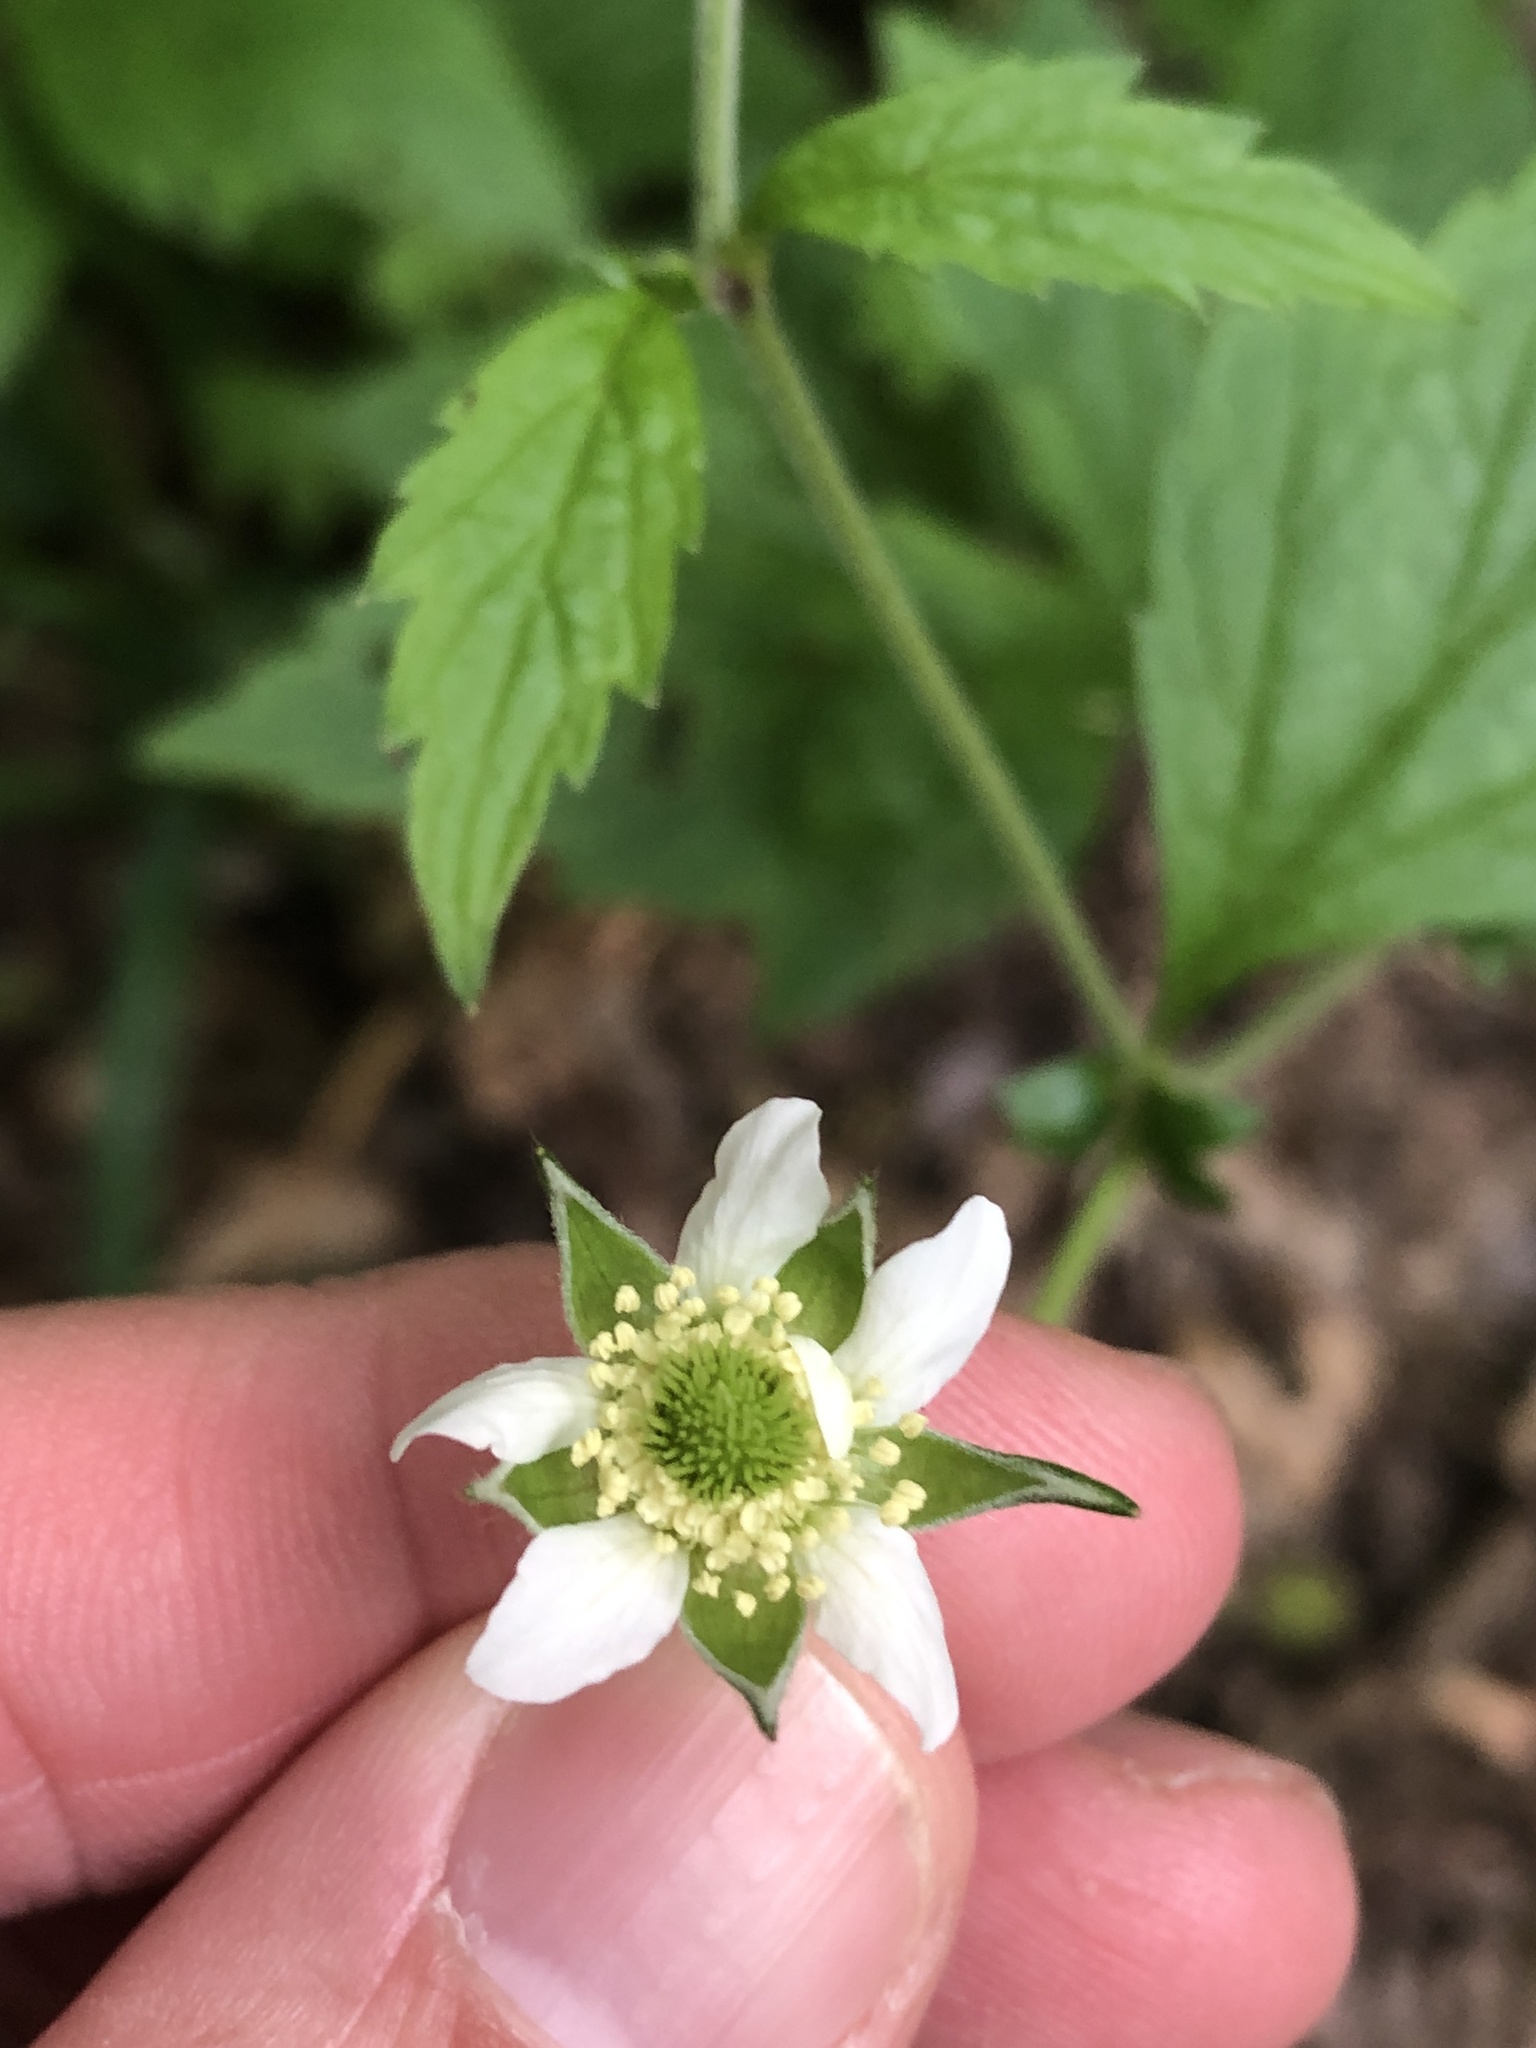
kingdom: Plantae
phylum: Tracheophyta
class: Magnoliopsida
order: Rosales
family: Rosaceae
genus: Geum
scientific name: Geum canadense
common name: White avens
